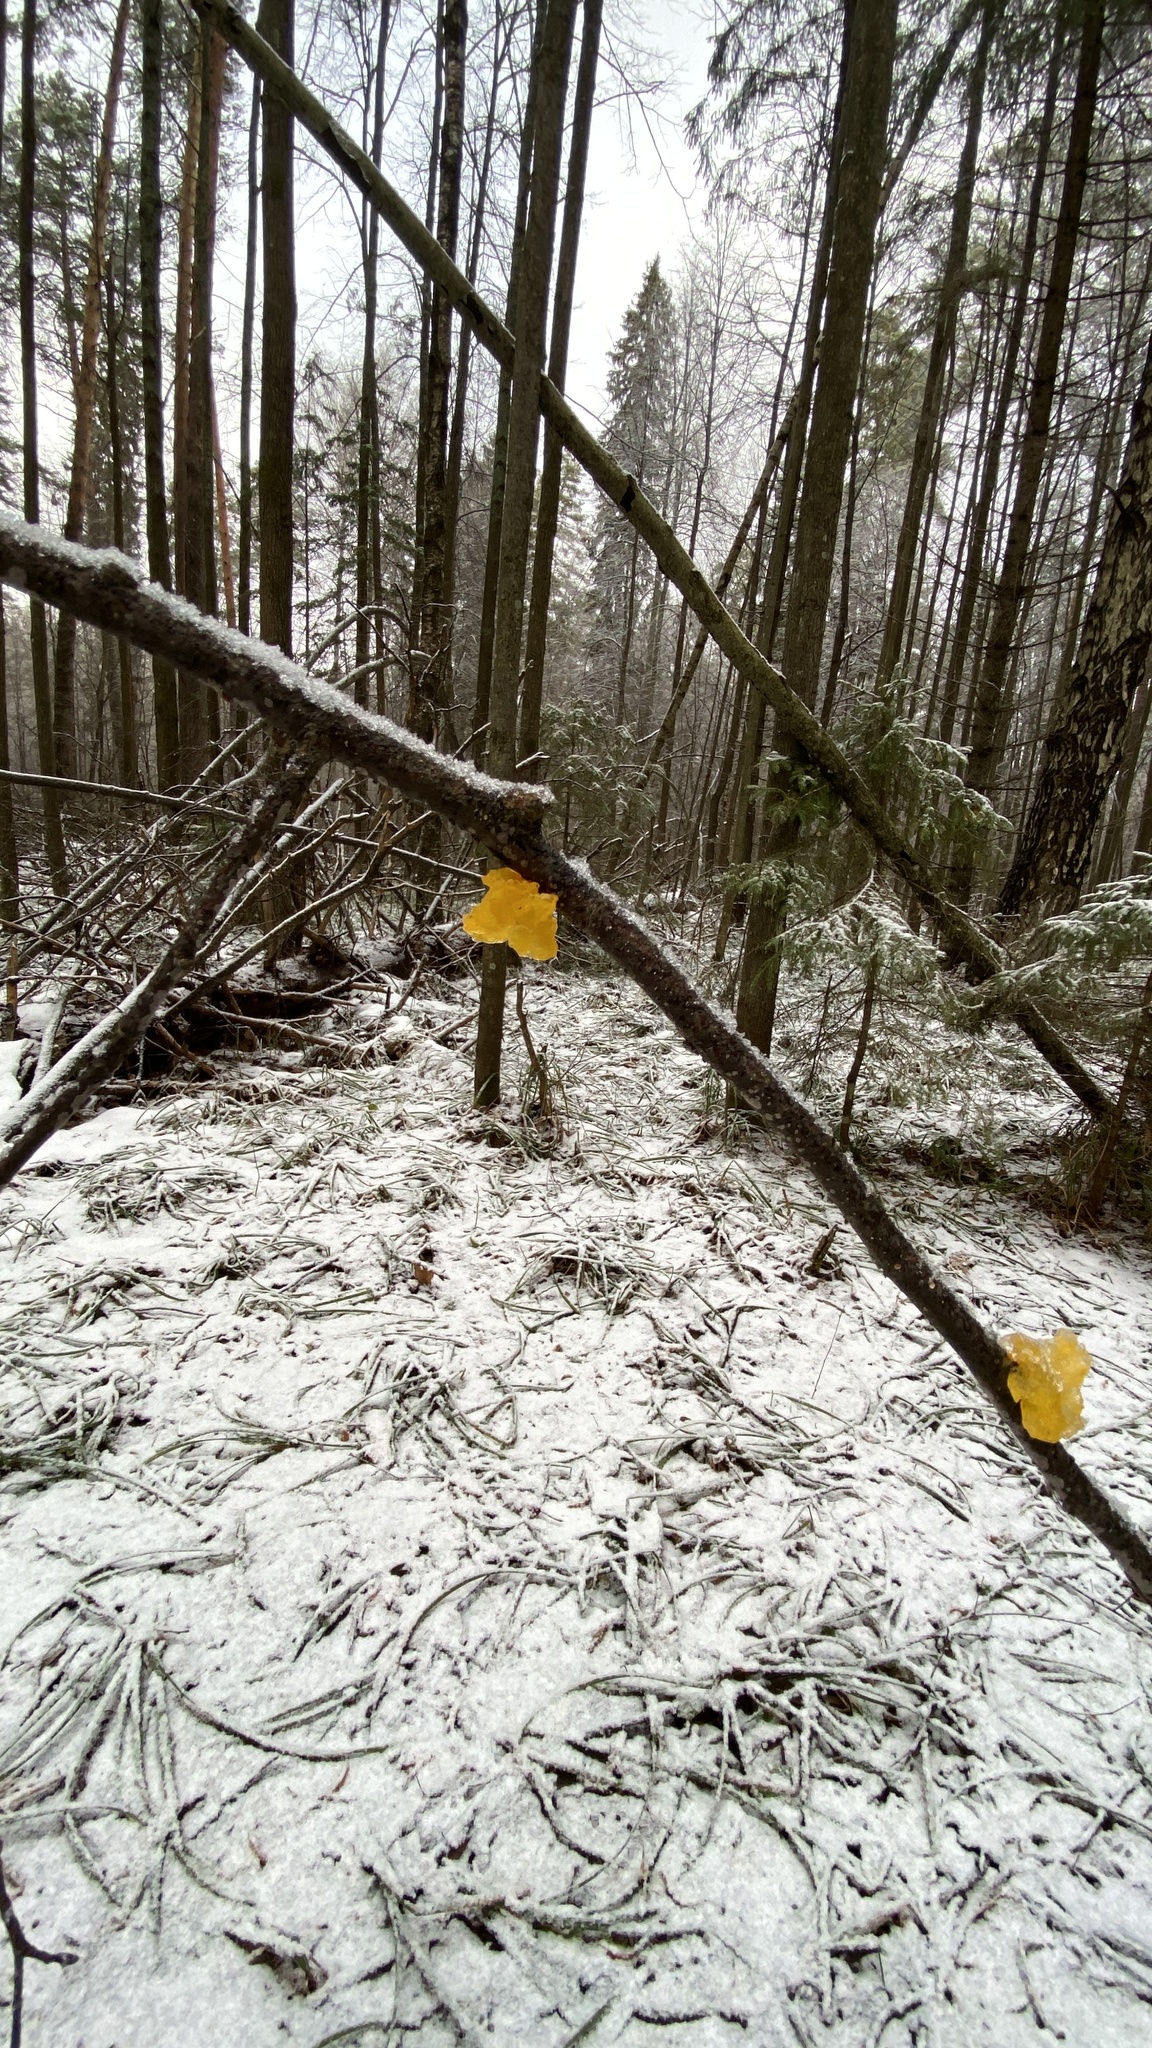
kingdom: Fungi
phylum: Basidiomycota
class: Tremellomycetes
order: Tremellales
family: Tremellaceae
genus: Tremella
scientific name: Tremella mesenterica
